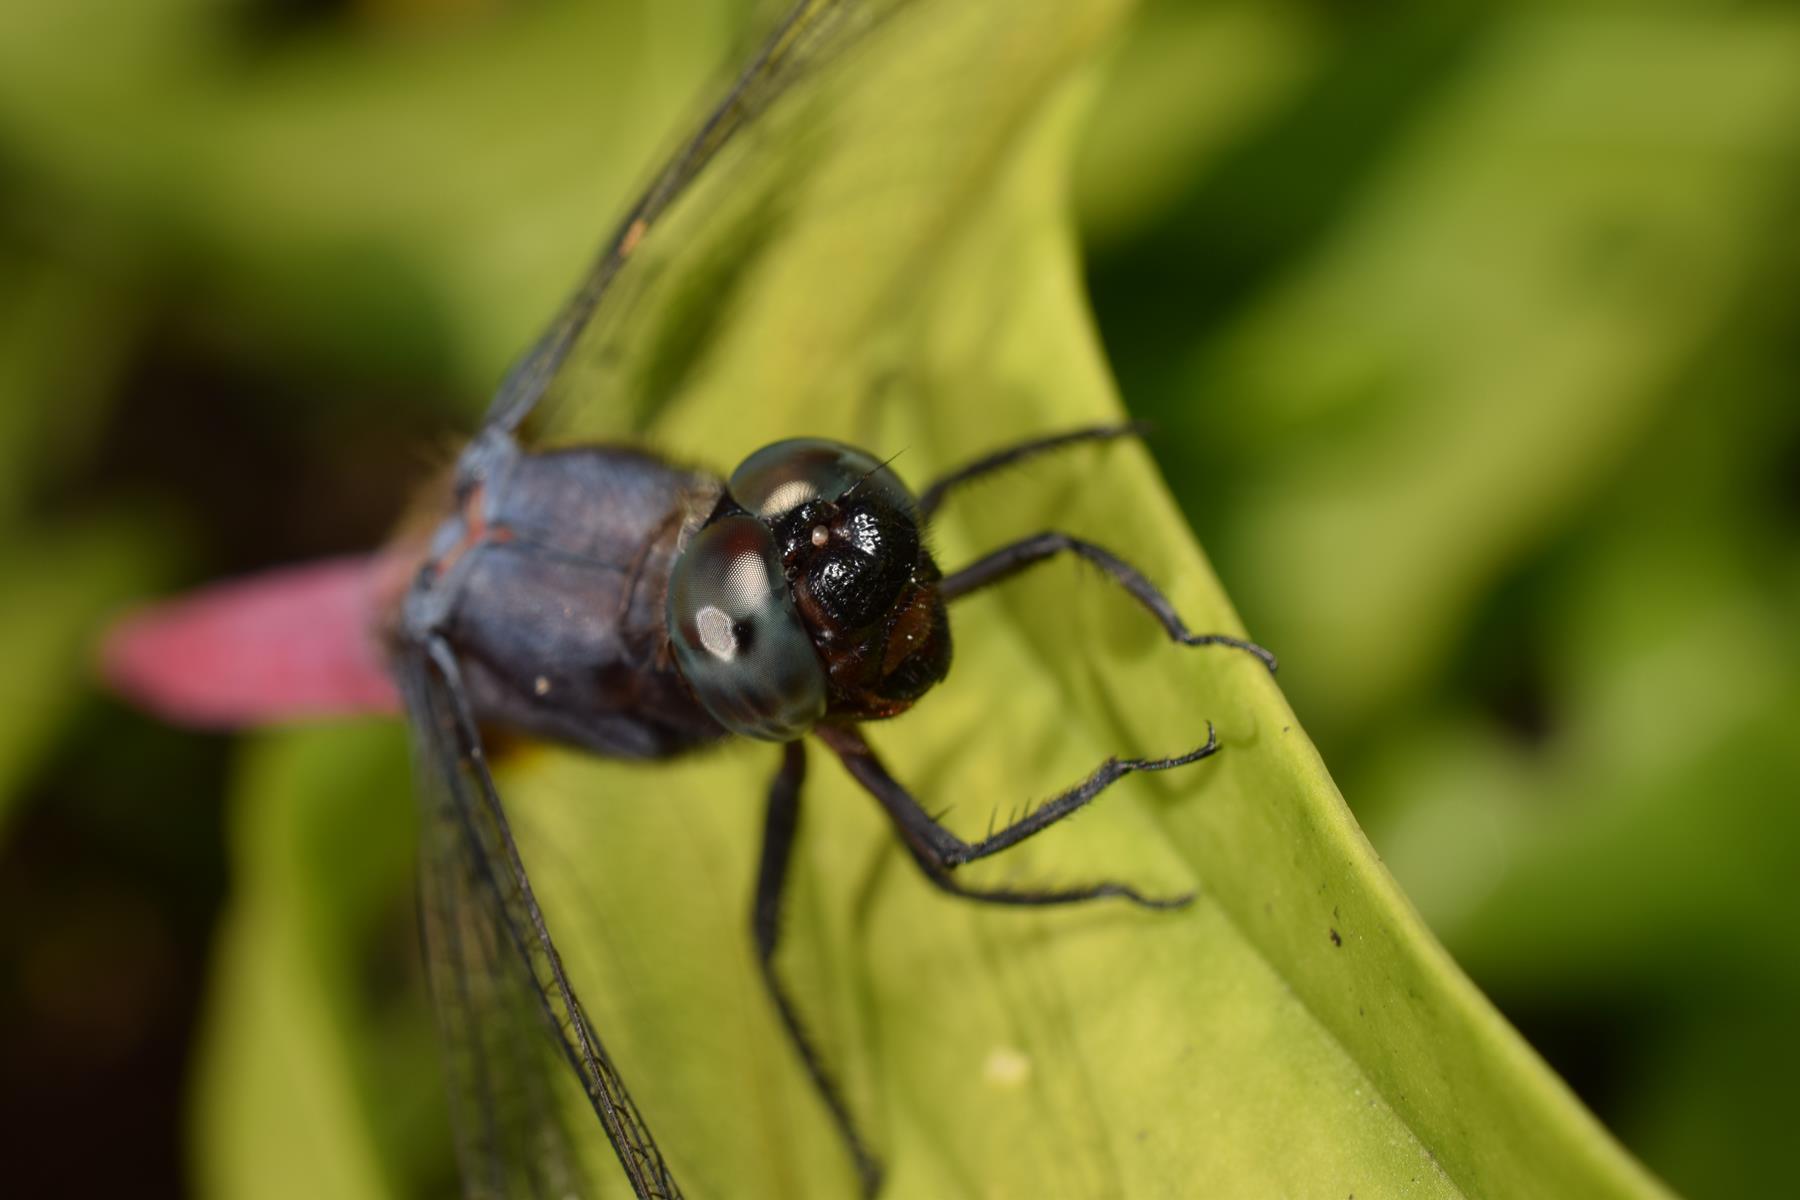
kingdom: Animalia
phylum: Arthropoda
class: Insecta
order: Odonata
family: Libellulidae
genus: Orthetrum
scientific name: Orthetrum pruinosum
